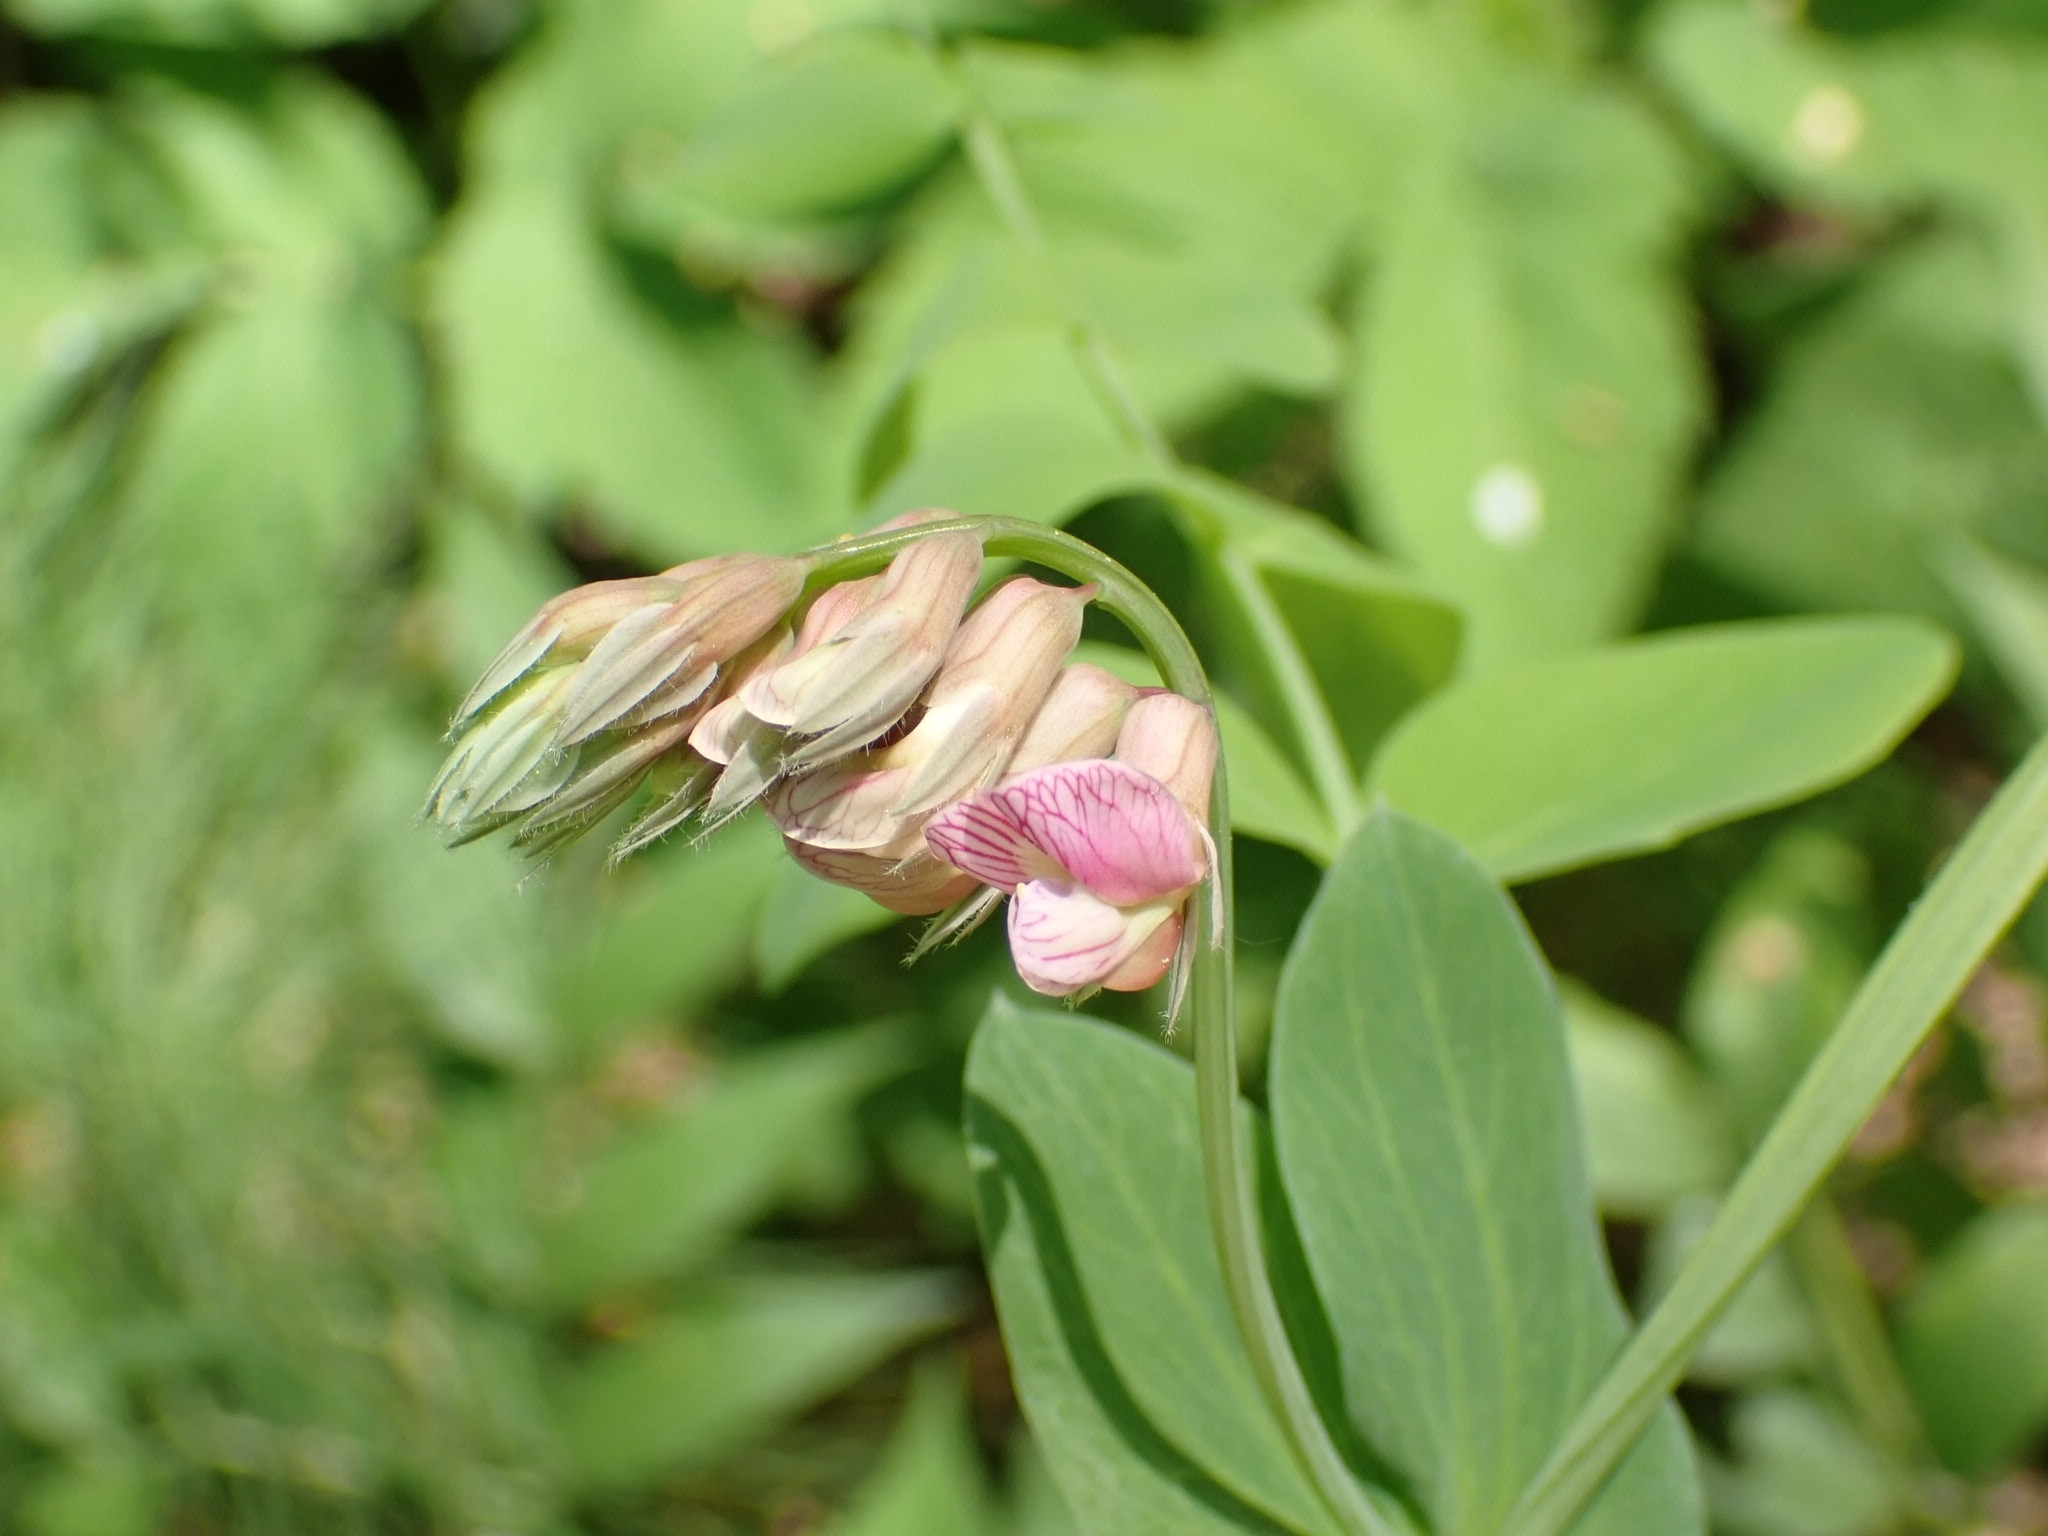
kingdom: Plantae
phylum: Tracheophyta
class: Magnoliopsida
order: Fabales
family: Fabaceae
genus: Lathyrus
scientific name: Lathyrus pisiformis
